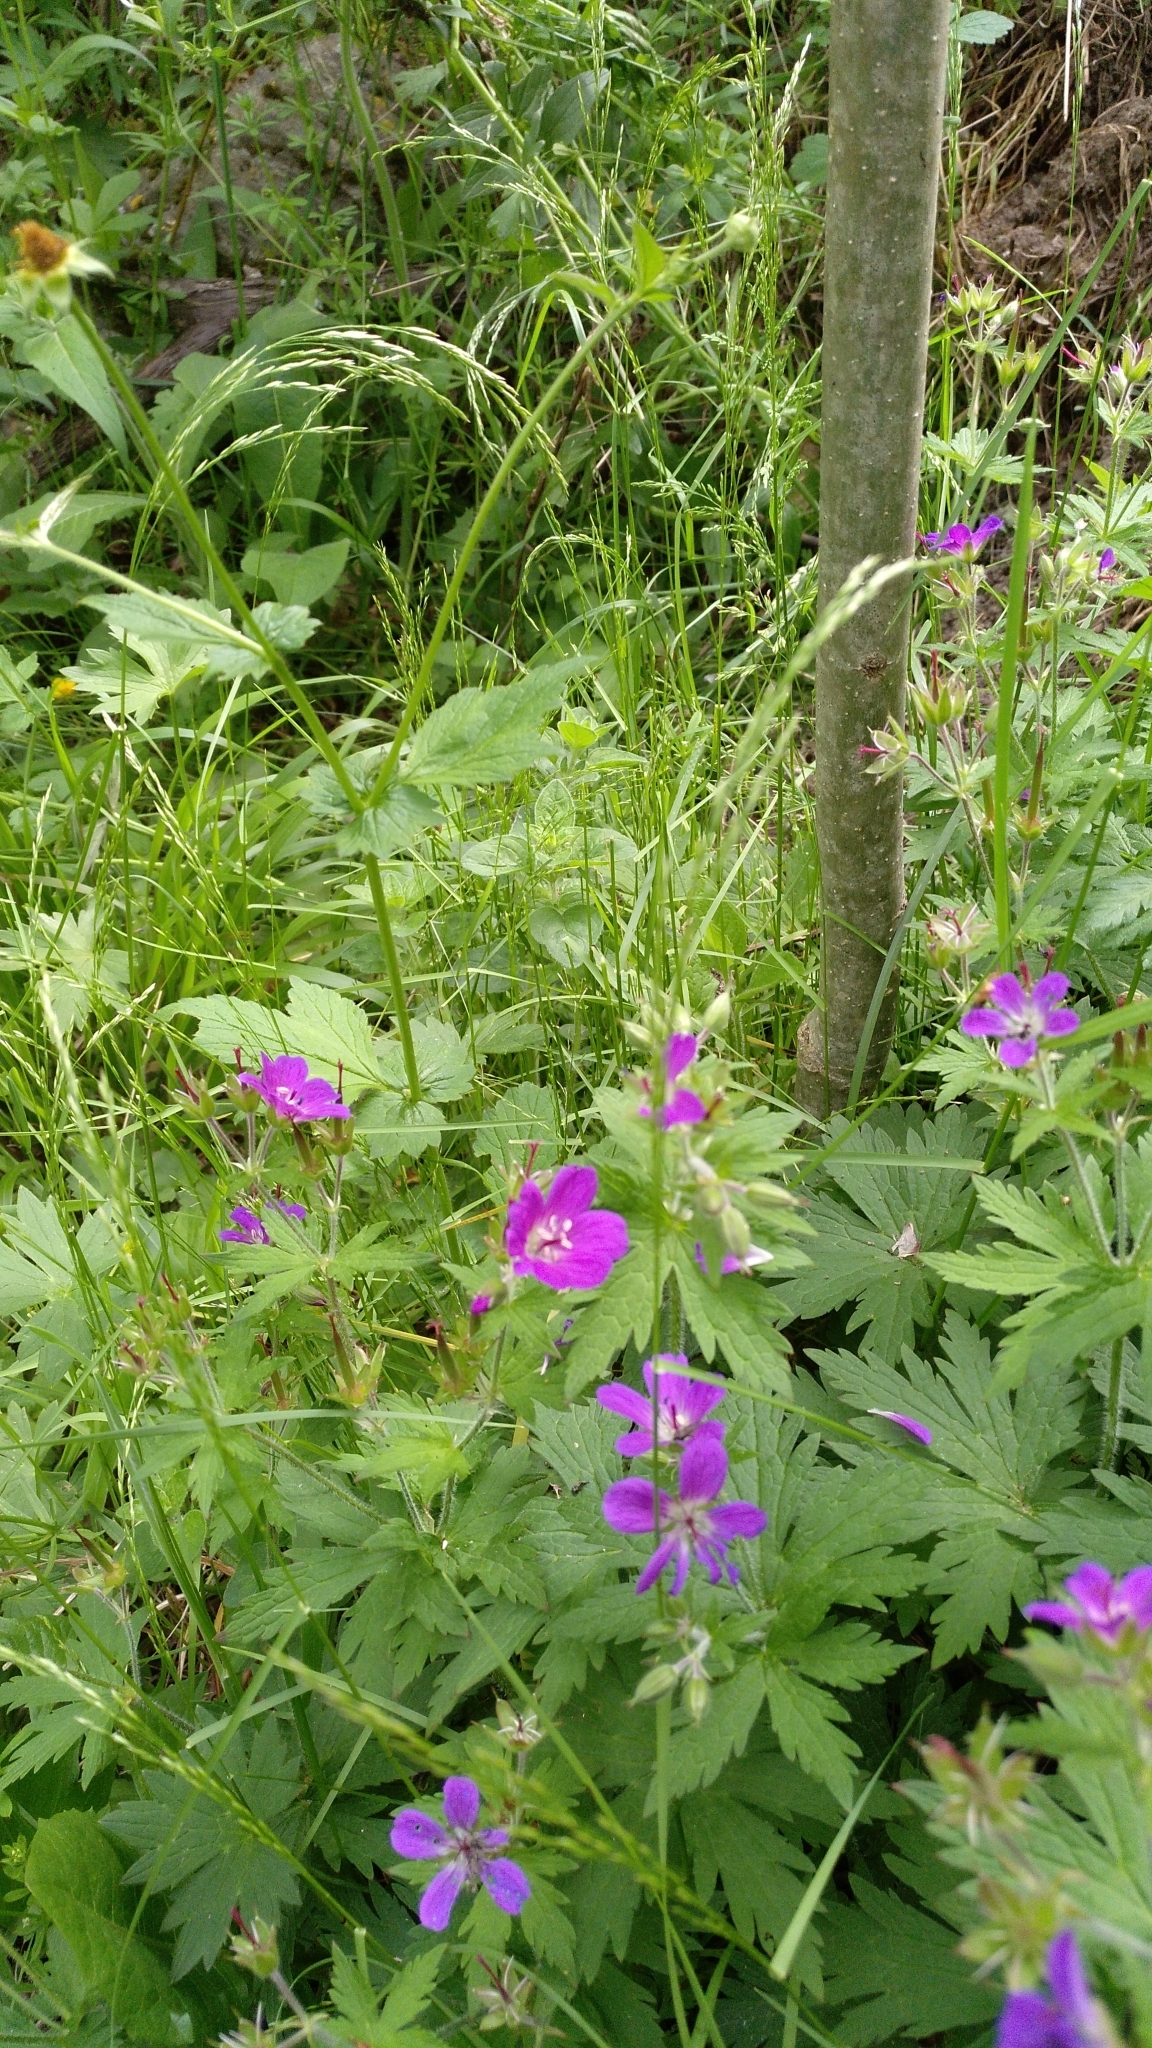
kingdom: Plantae
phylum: Tracheophyta
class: Magnoliopsida
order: Geraniales
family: Geraniaceae
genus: Geranium
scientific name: Geranium sylvaticum
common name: Wood crane's-bill
